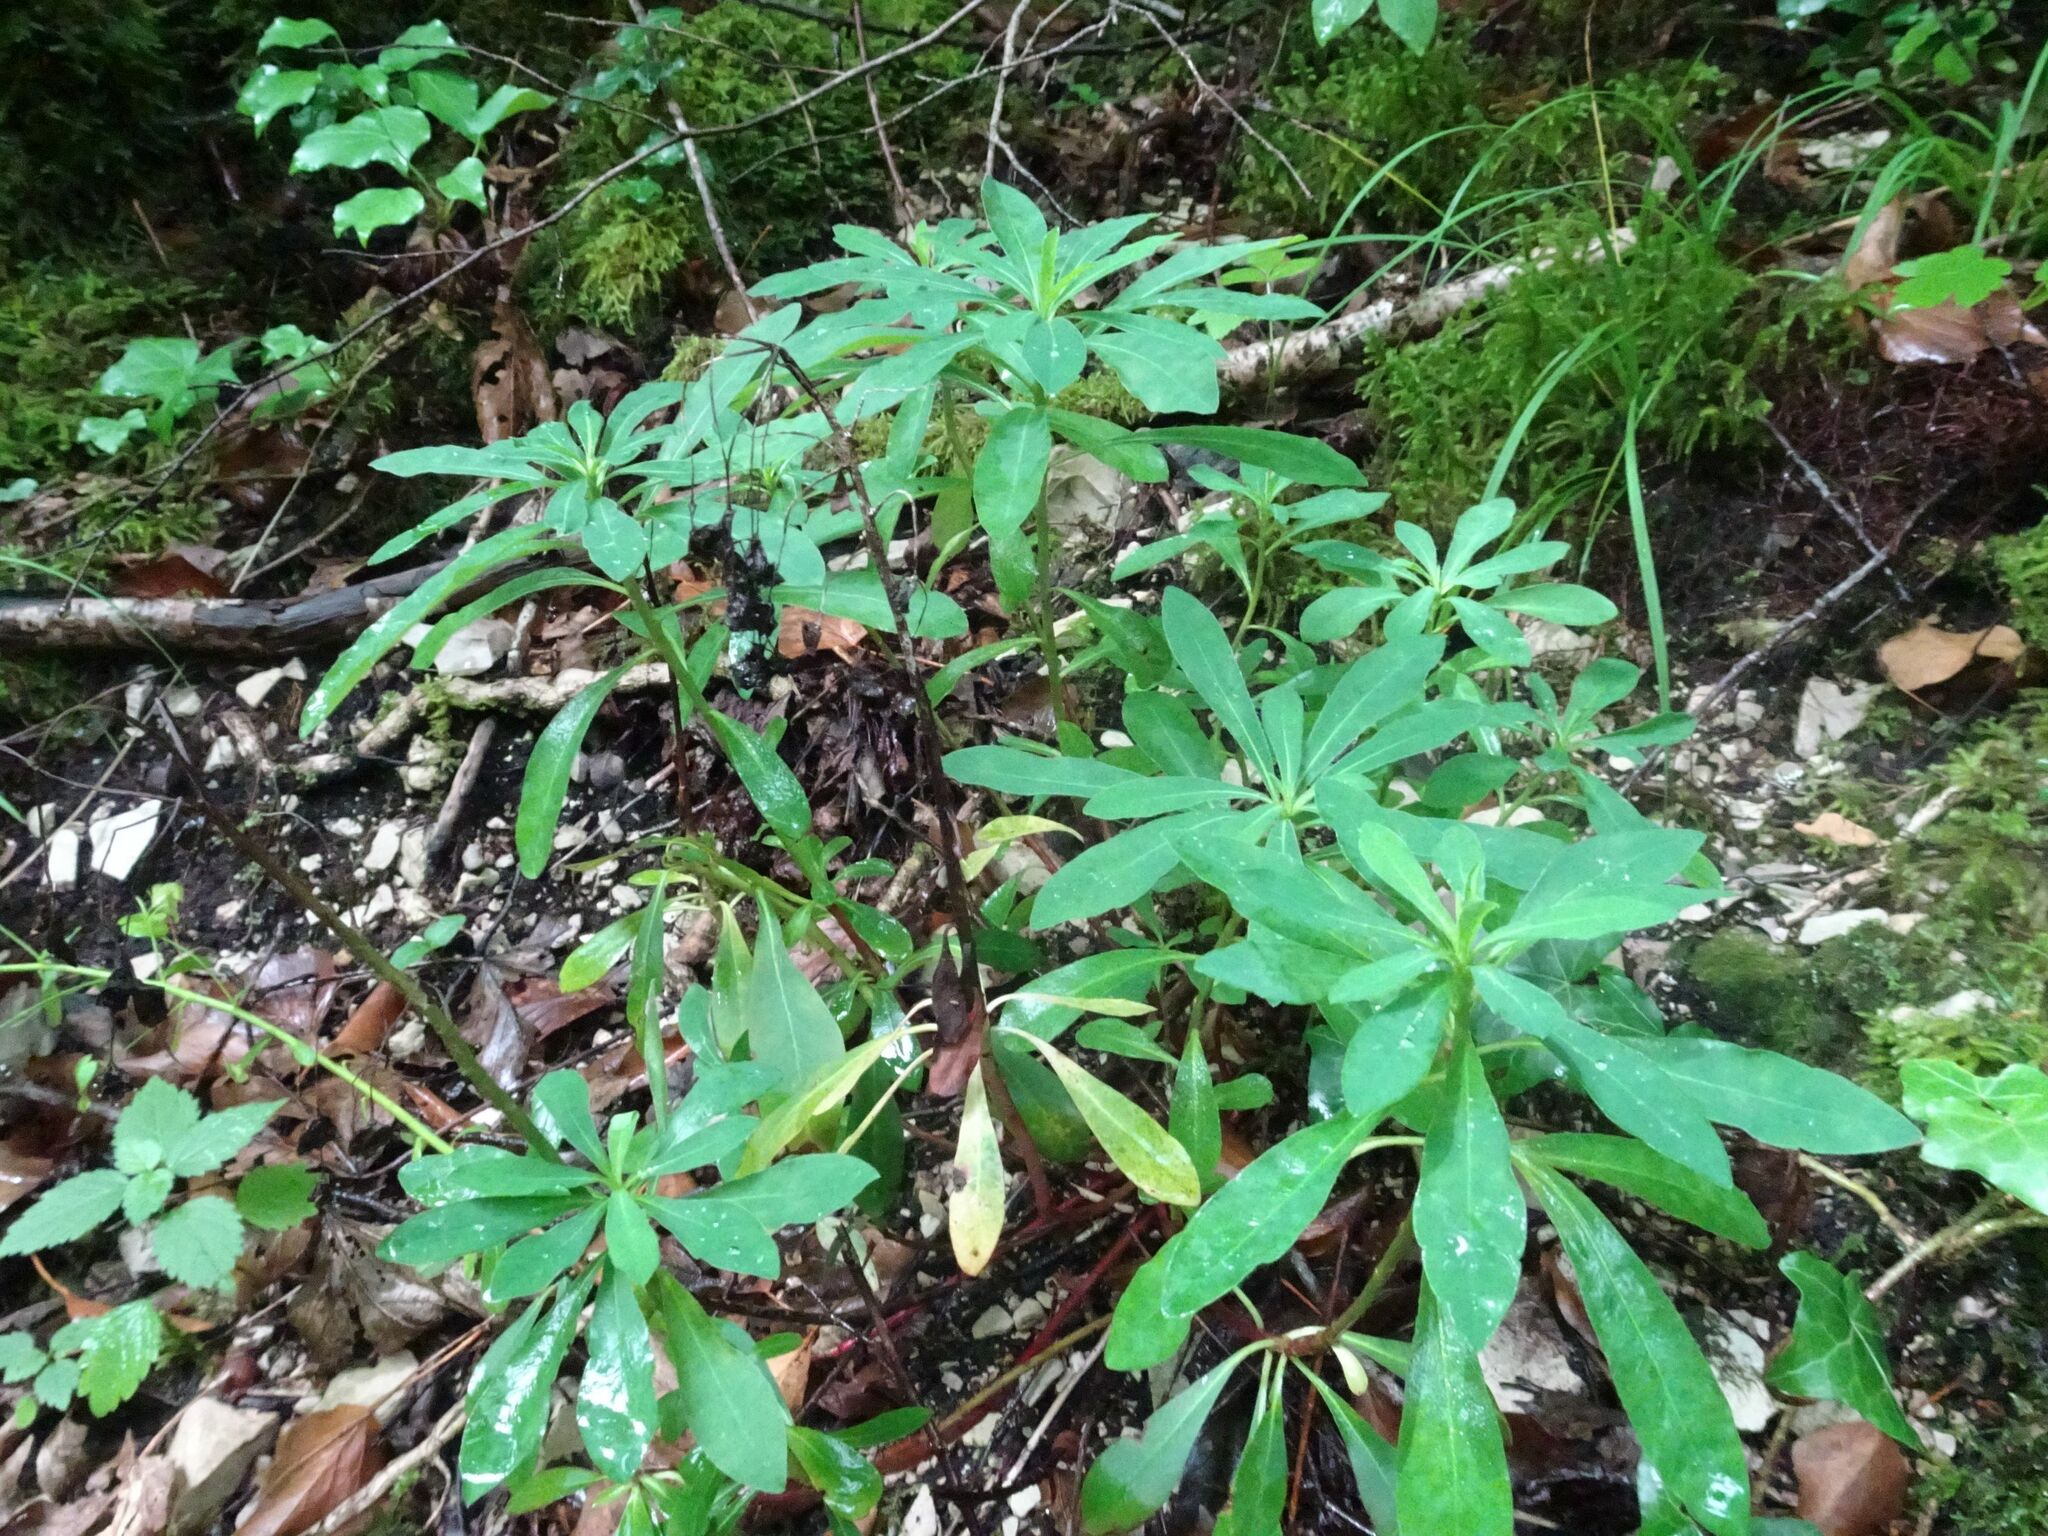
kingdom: Plantae
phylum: Tracheophyta
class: Magnoliopsida
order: Malpighiales
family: Euphorbiaceae
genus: Euphorbia
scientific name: Euphorbia amygdaloides
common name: Wood spurge
